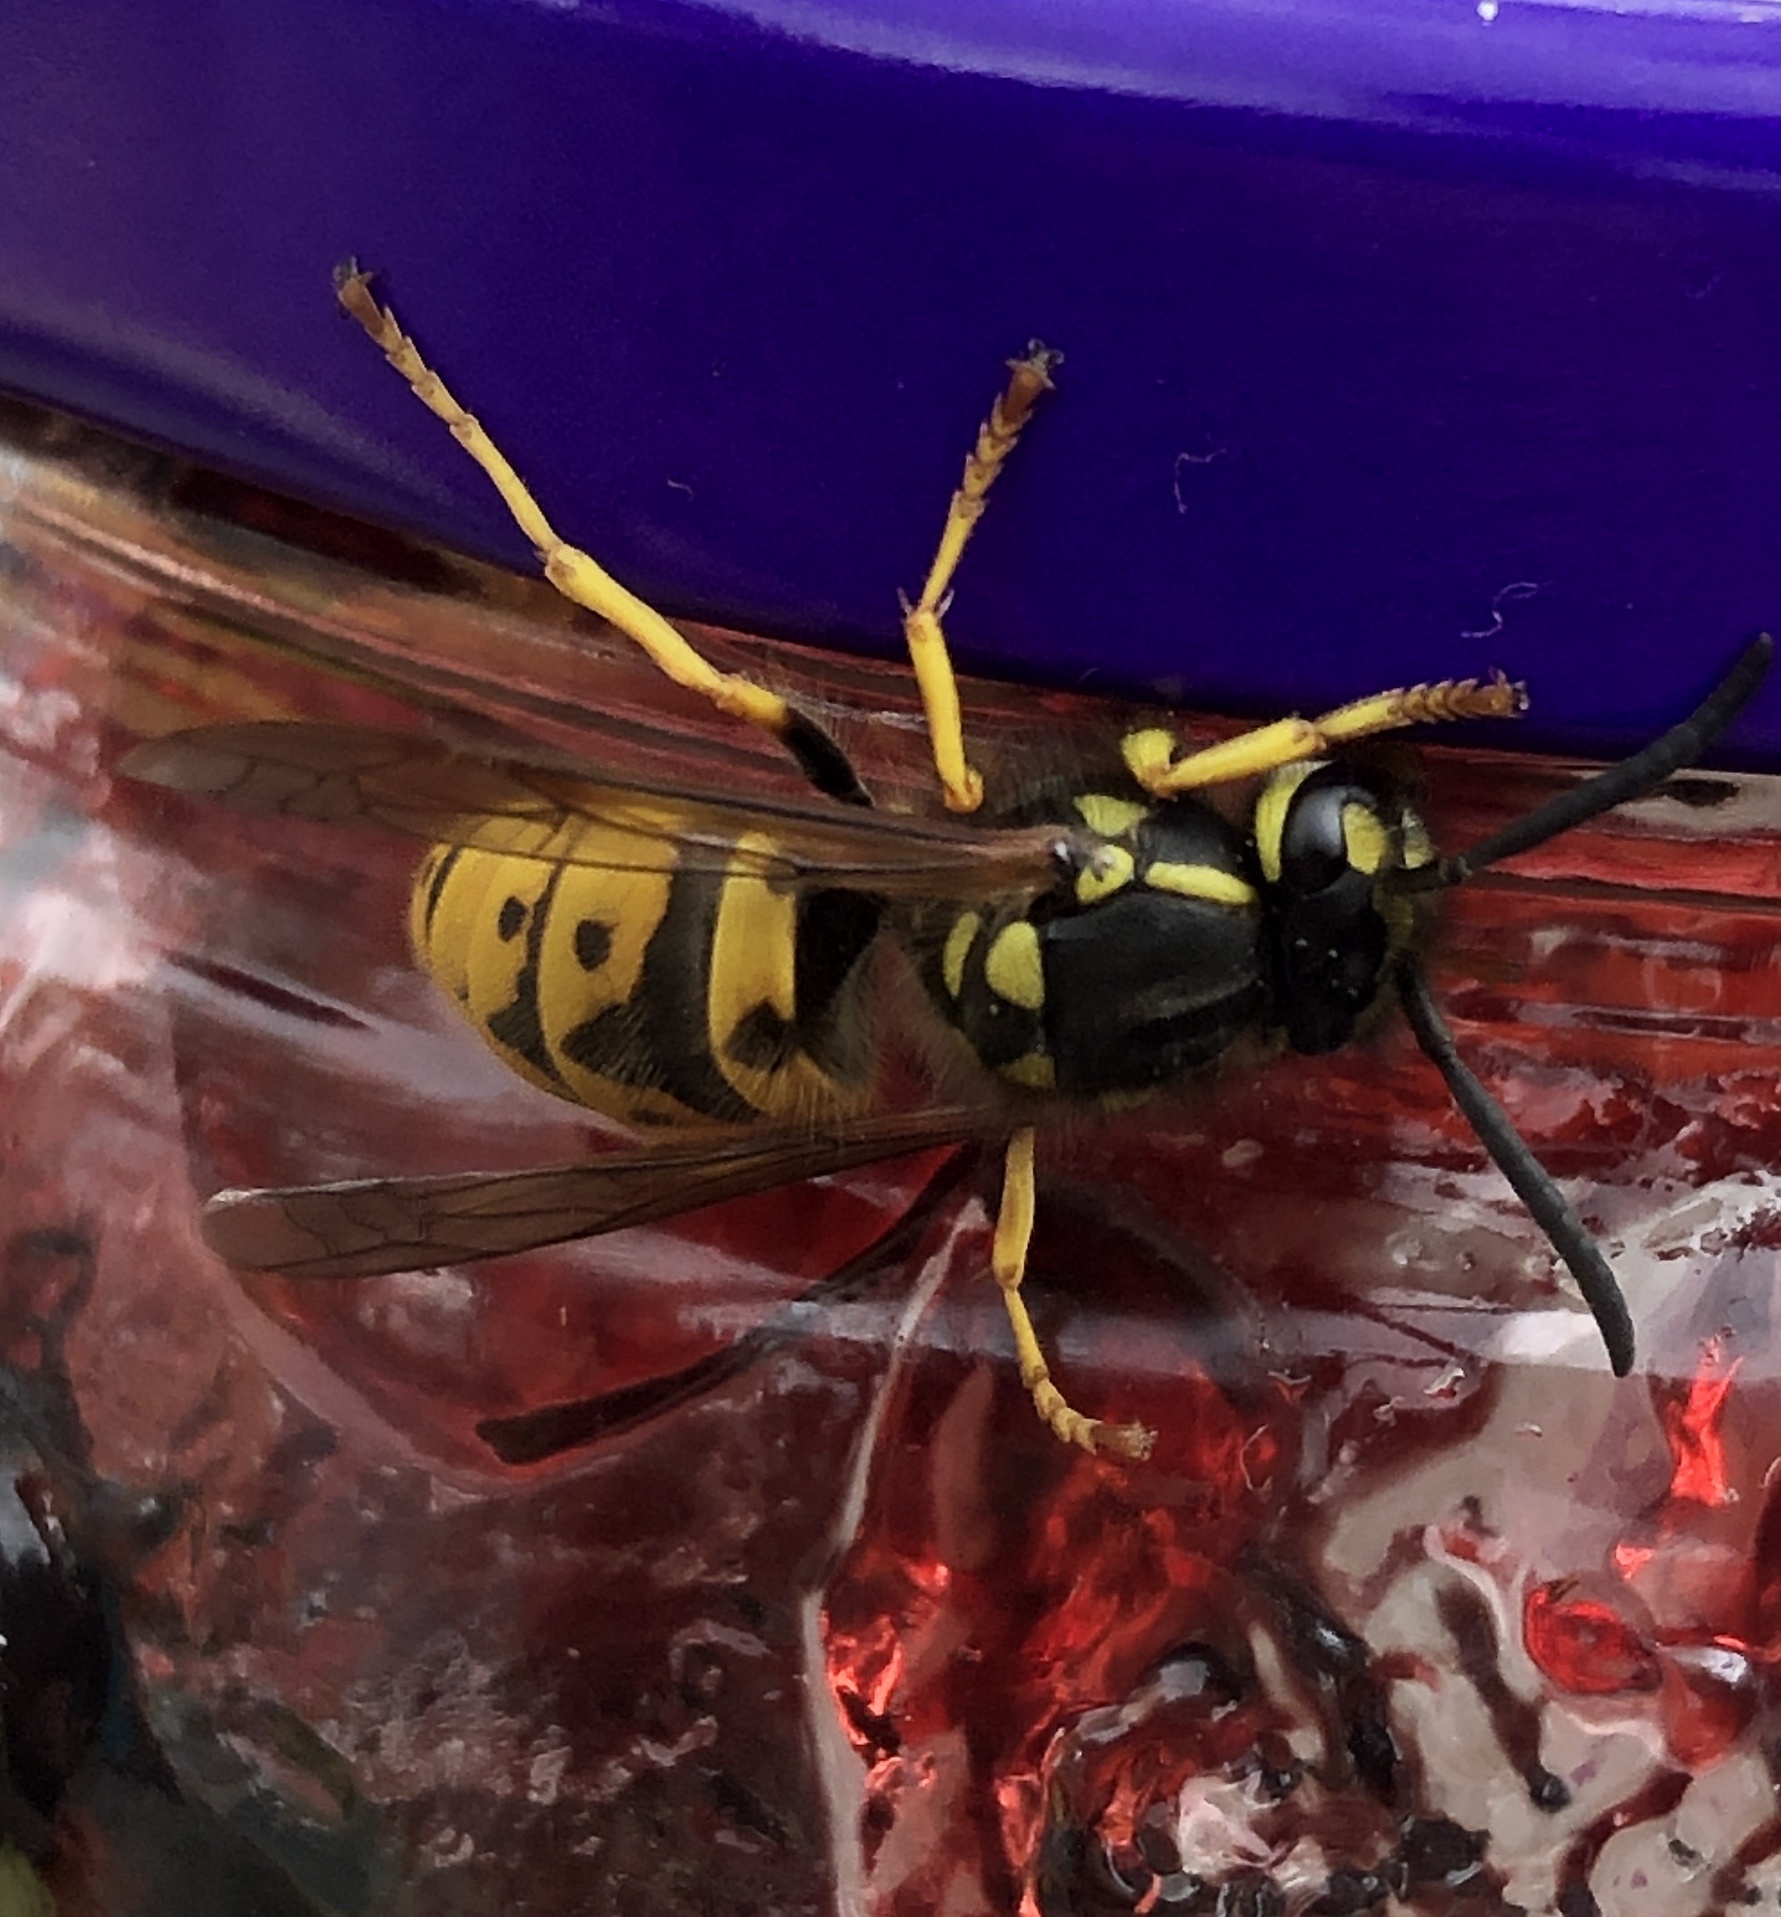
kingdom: Animalia
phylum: Arthropoda
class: Insecta
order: Hymenoptera
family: Vespidae
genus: Vespula
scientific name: Vespula germanica
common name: German wasp
